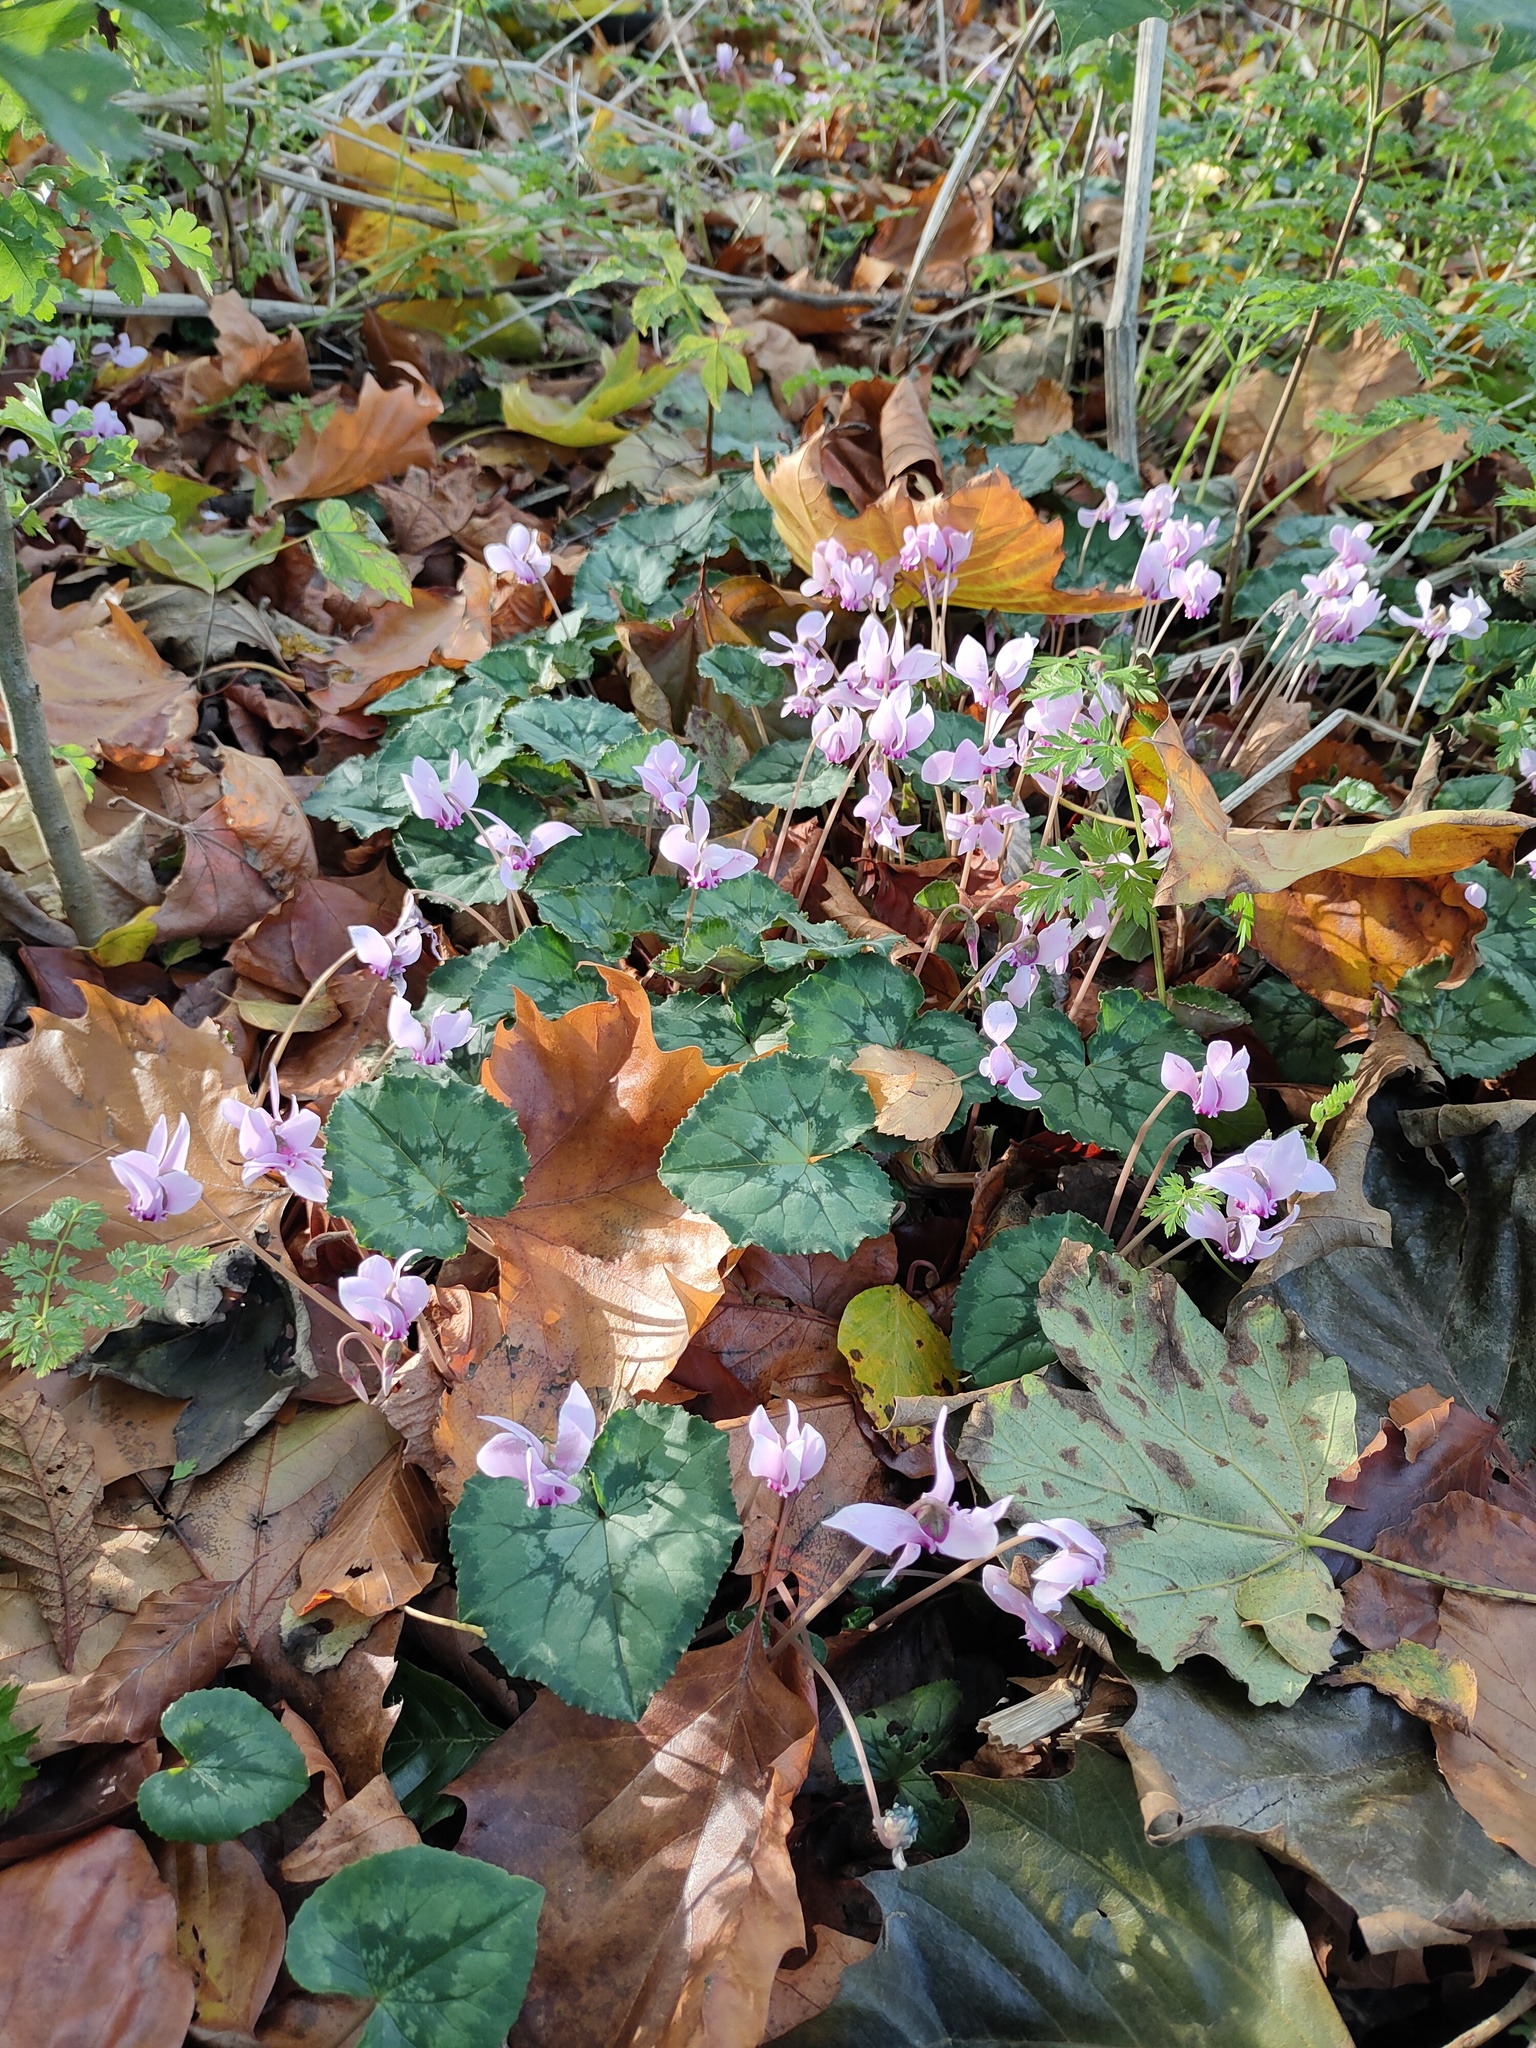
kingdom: Plantae
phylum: Tracheophyta
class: Magnoliopsida
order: Ericales
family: Primulaceae
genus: Cyclamen
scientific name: Cyclamen hederifolium
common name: Sowbread
